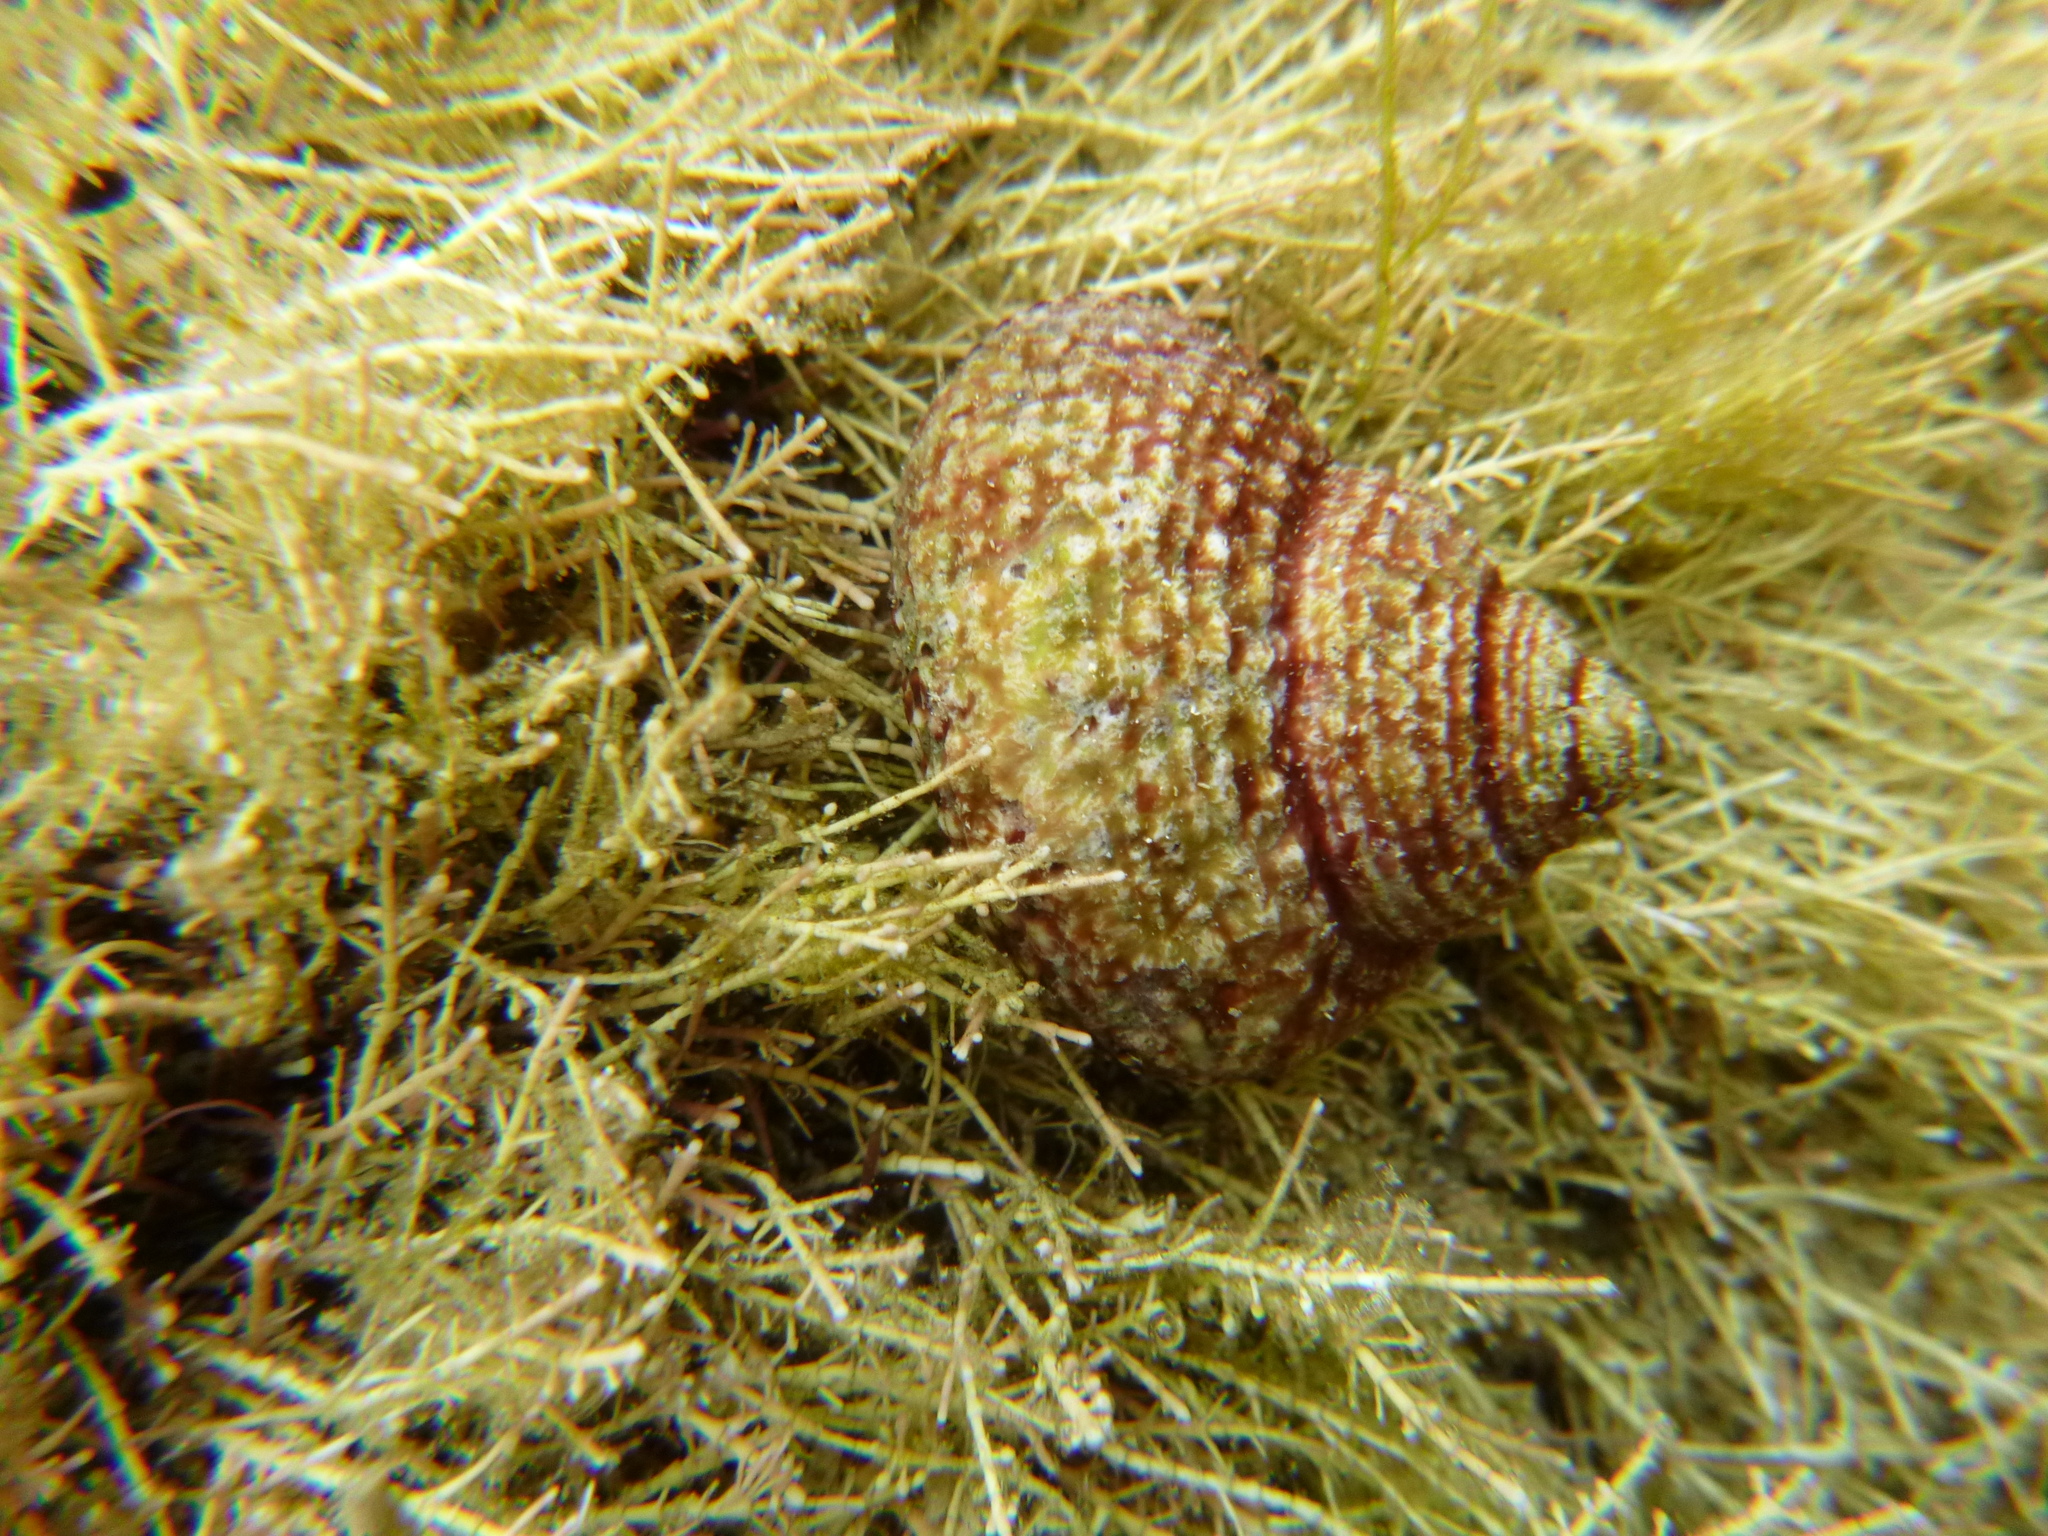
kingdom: Animalia
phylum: Mollusca
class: Gastropoda
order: Trochida
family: Calliostomatidae
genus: Maurea
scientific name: Maurea punctulata
